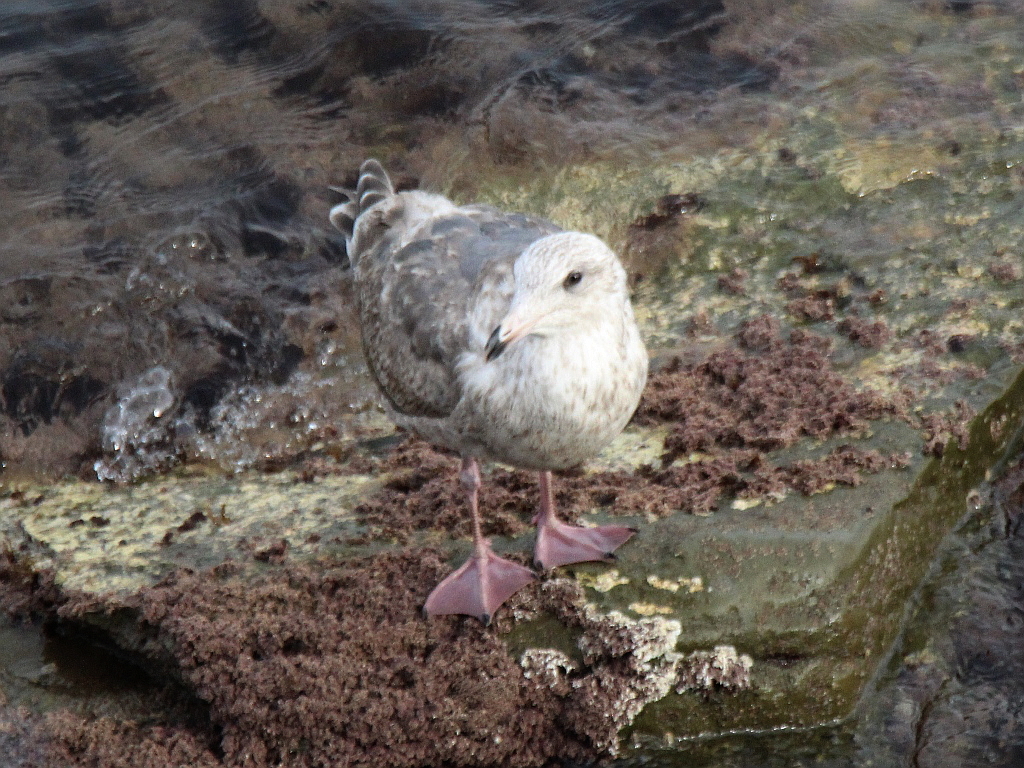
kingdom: Animalia
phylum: Chordata
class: Aves
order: Charadriiformes
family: Laridae
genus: Larus
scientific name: Larus schistisagus
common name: Slaty-backed gull
